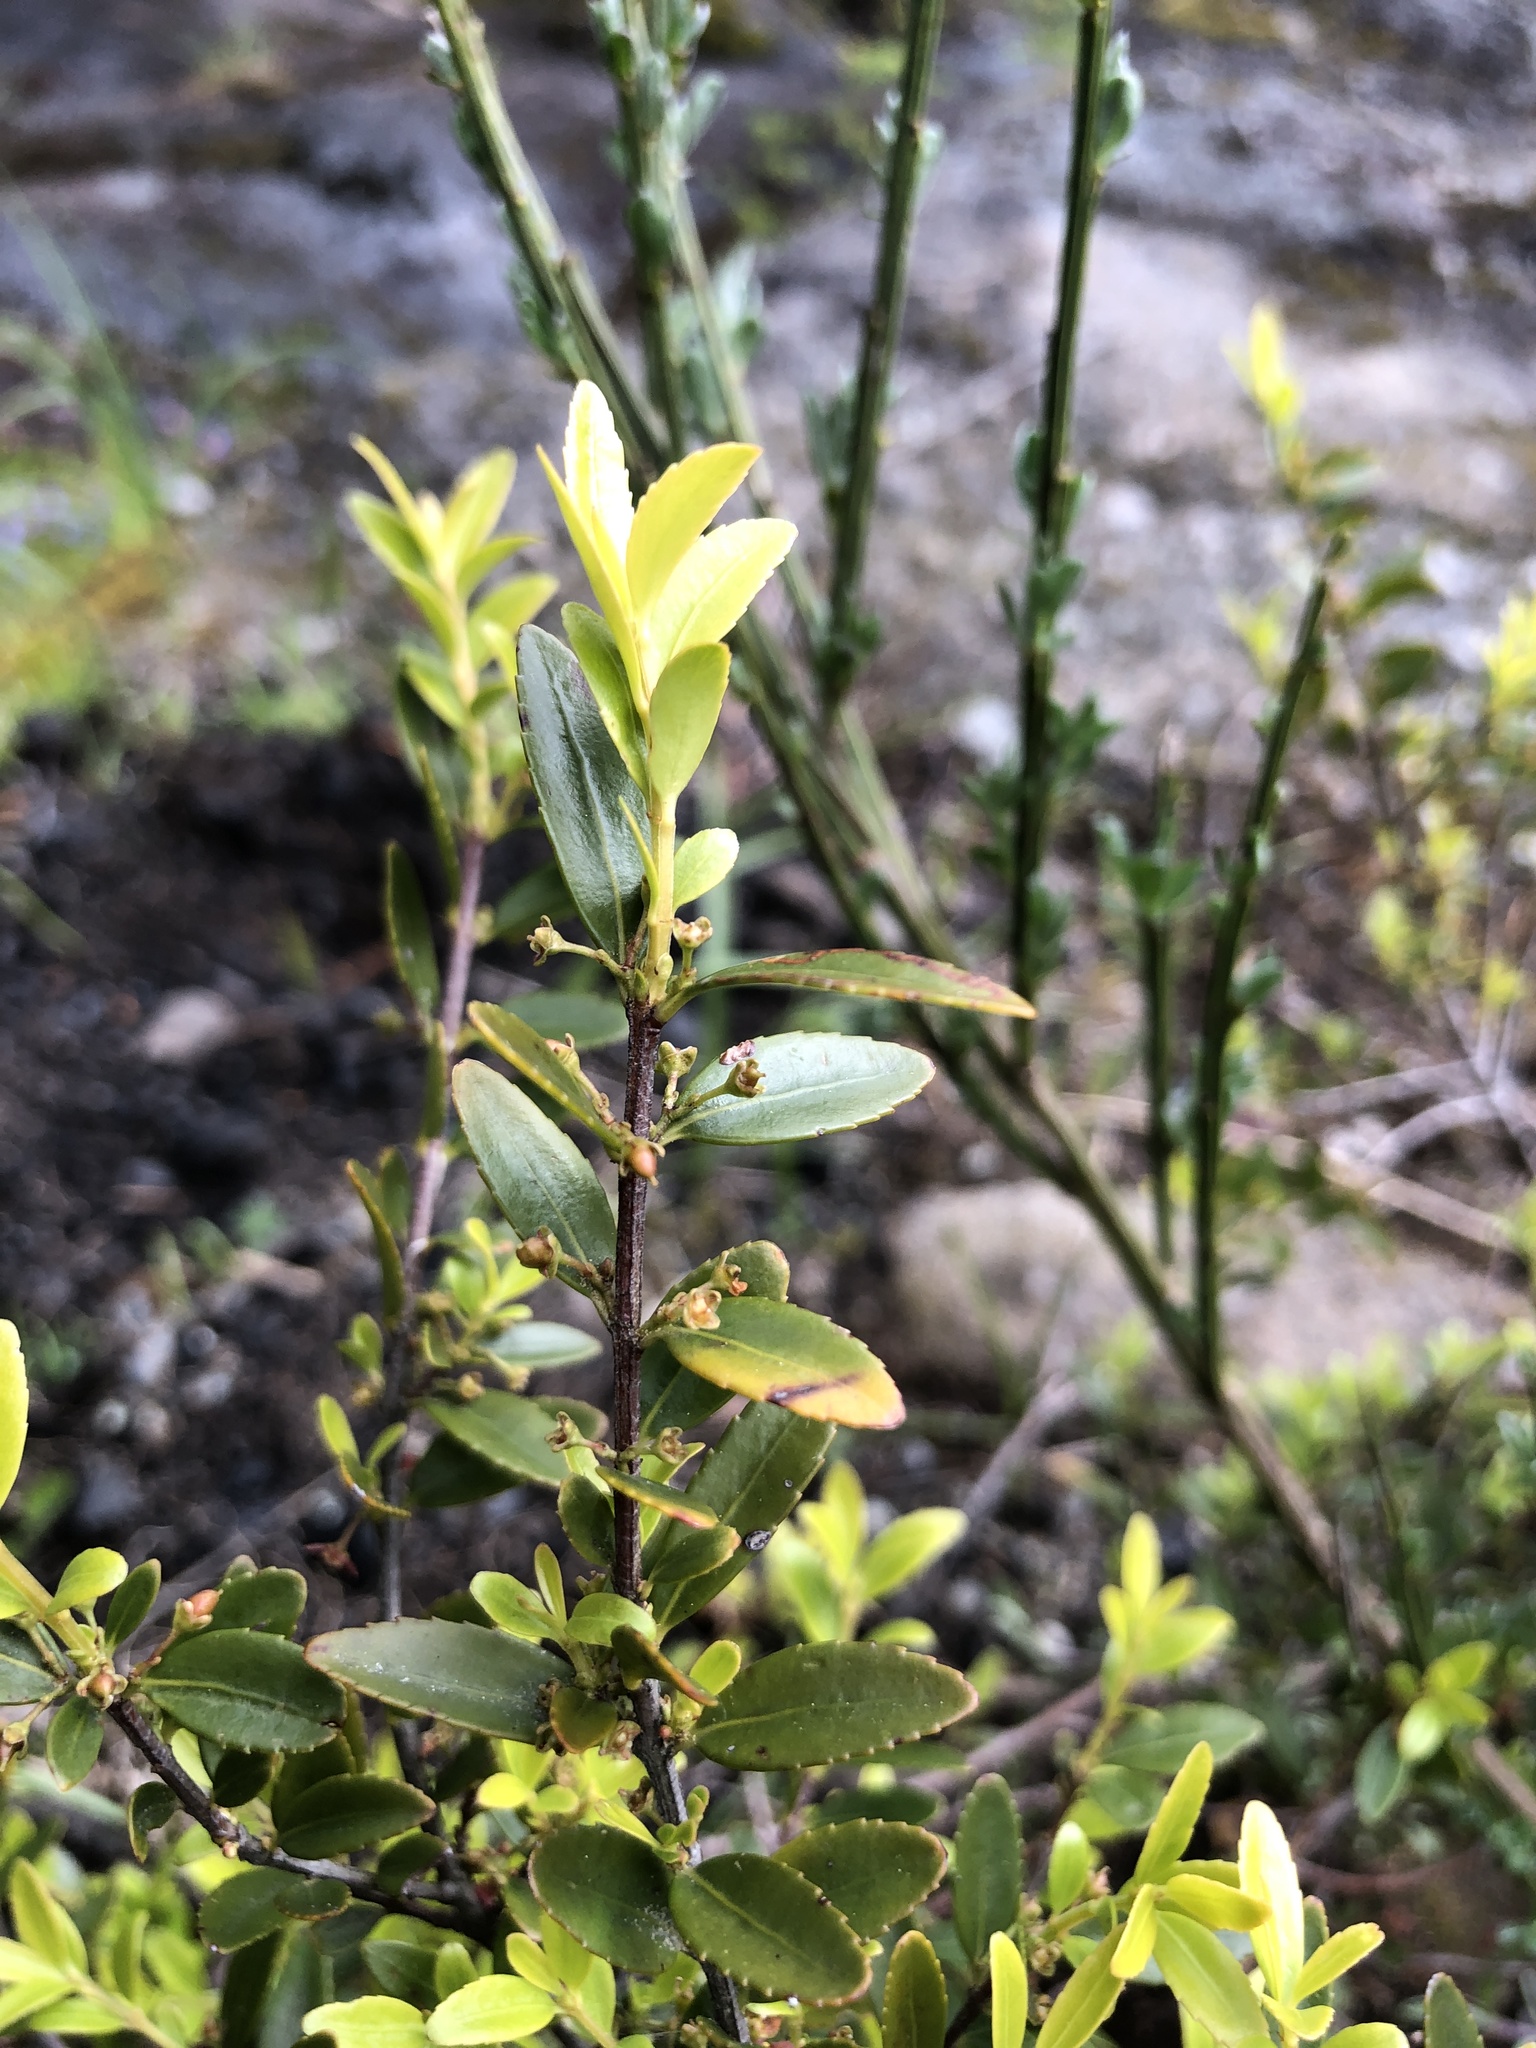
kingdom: Plantae
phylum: Tracheophyta
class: Magnoliopsida
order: Celastrales
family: Celastraceae
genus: Paxistima
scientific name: Paxistima myrsinites
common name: Mountain-lover
